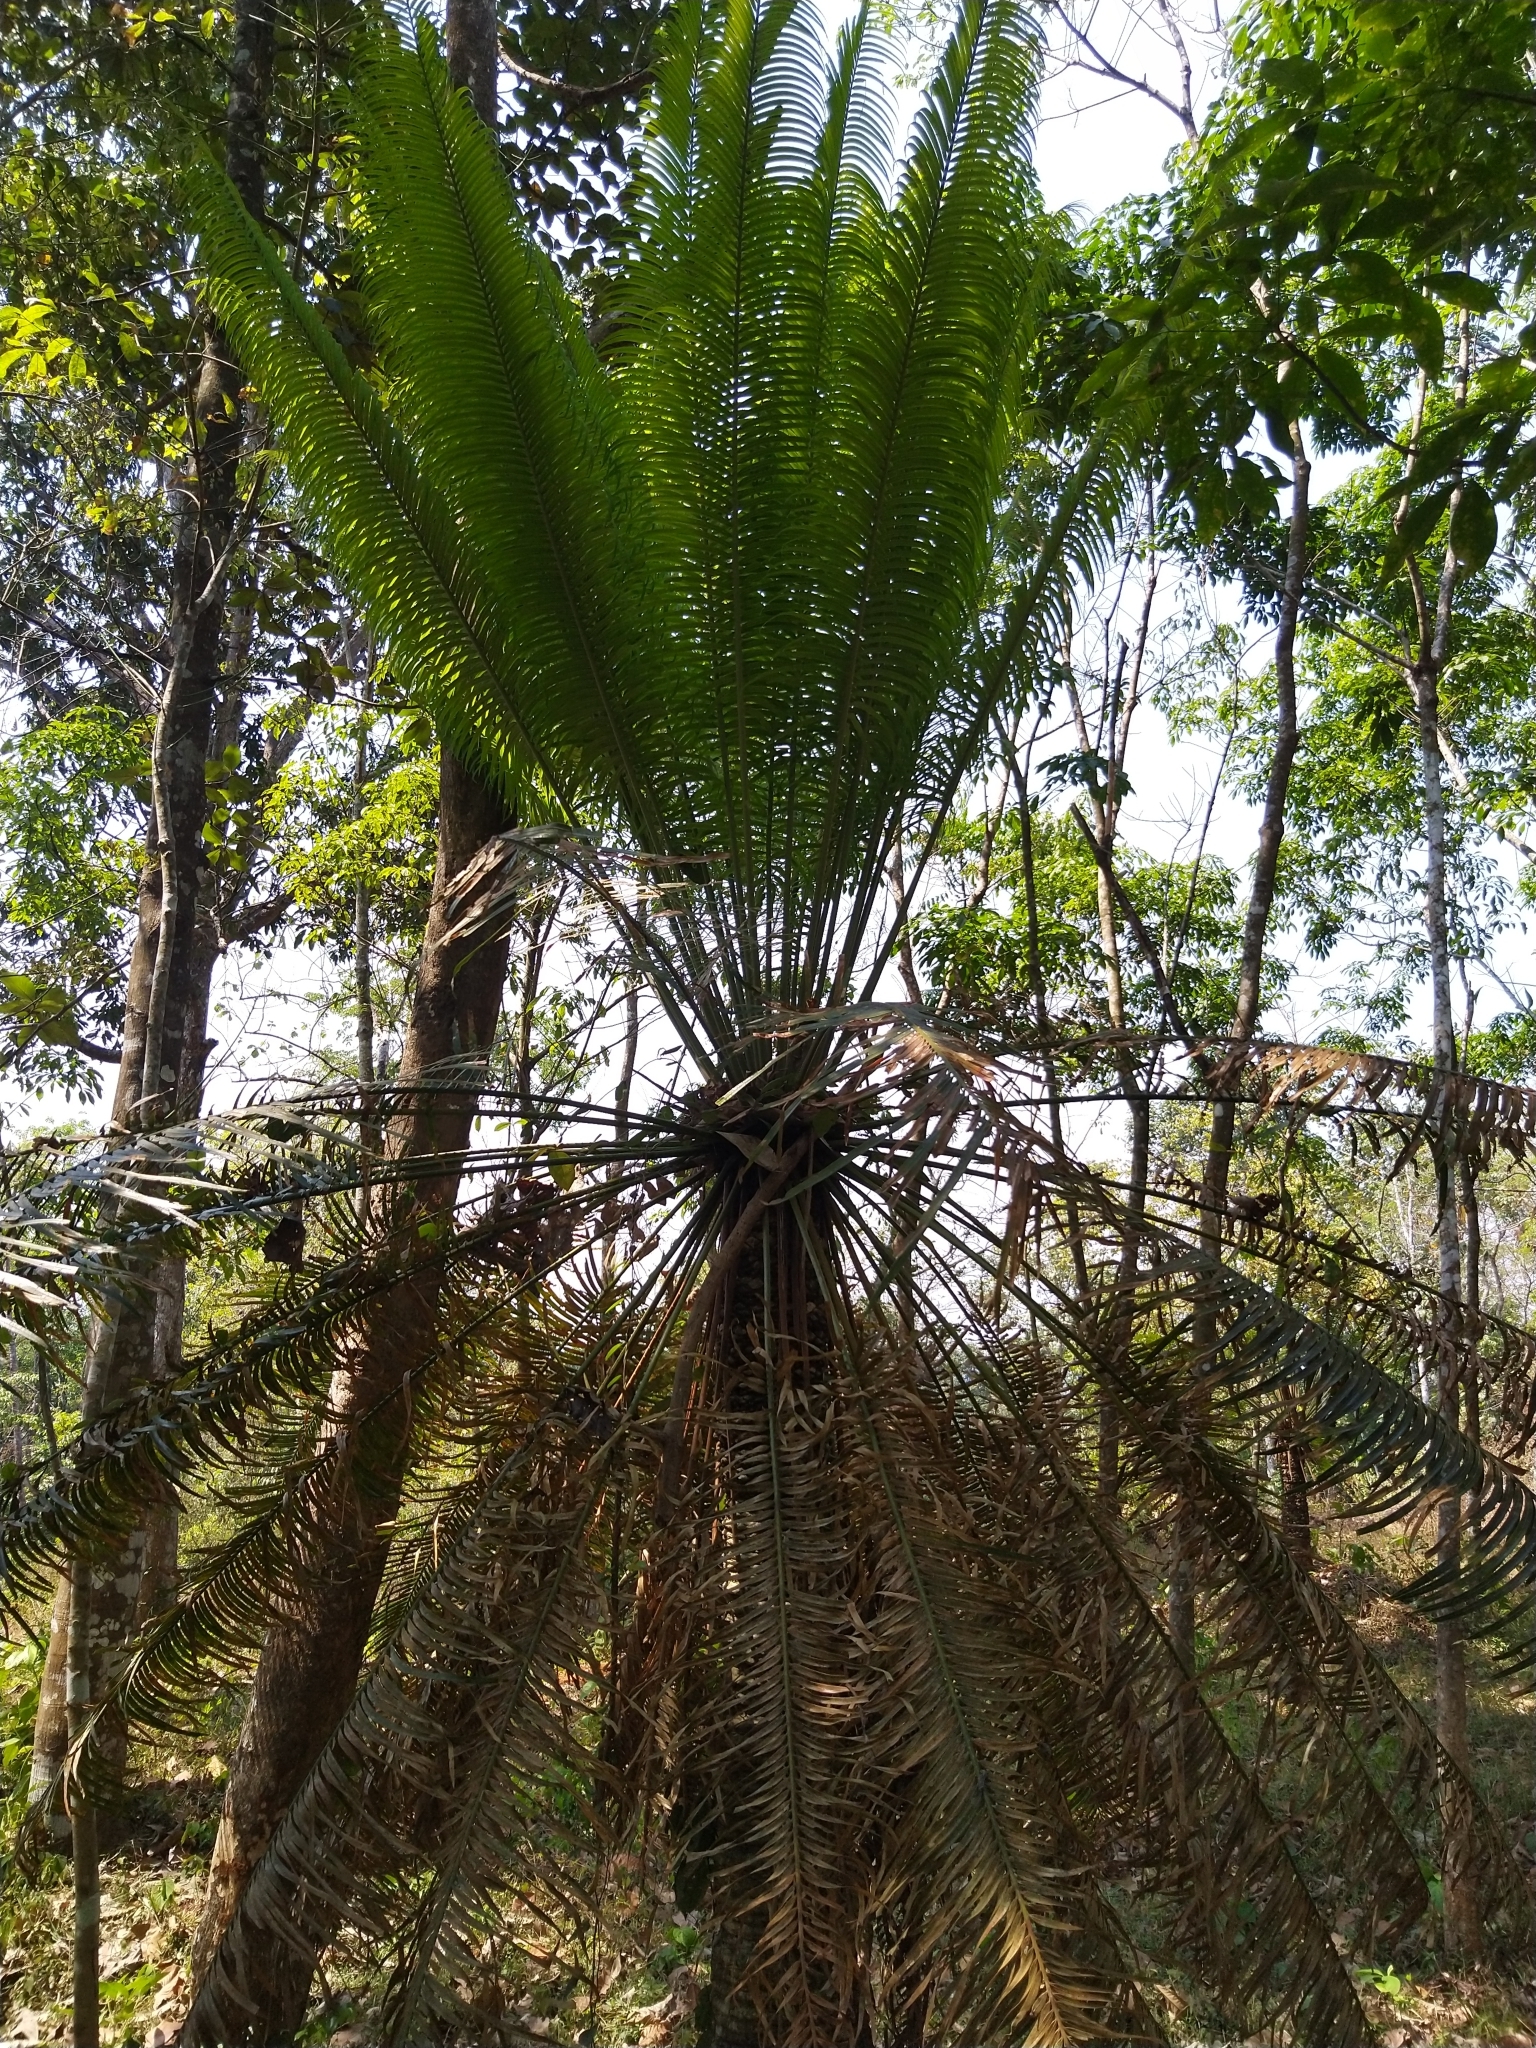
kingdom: Plantae
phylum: Tracheophyta
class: Cycadopsida
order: Cycadales
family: Cycadaceae
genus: Cycas
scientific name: Cycas circinalis
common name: Queen sago
